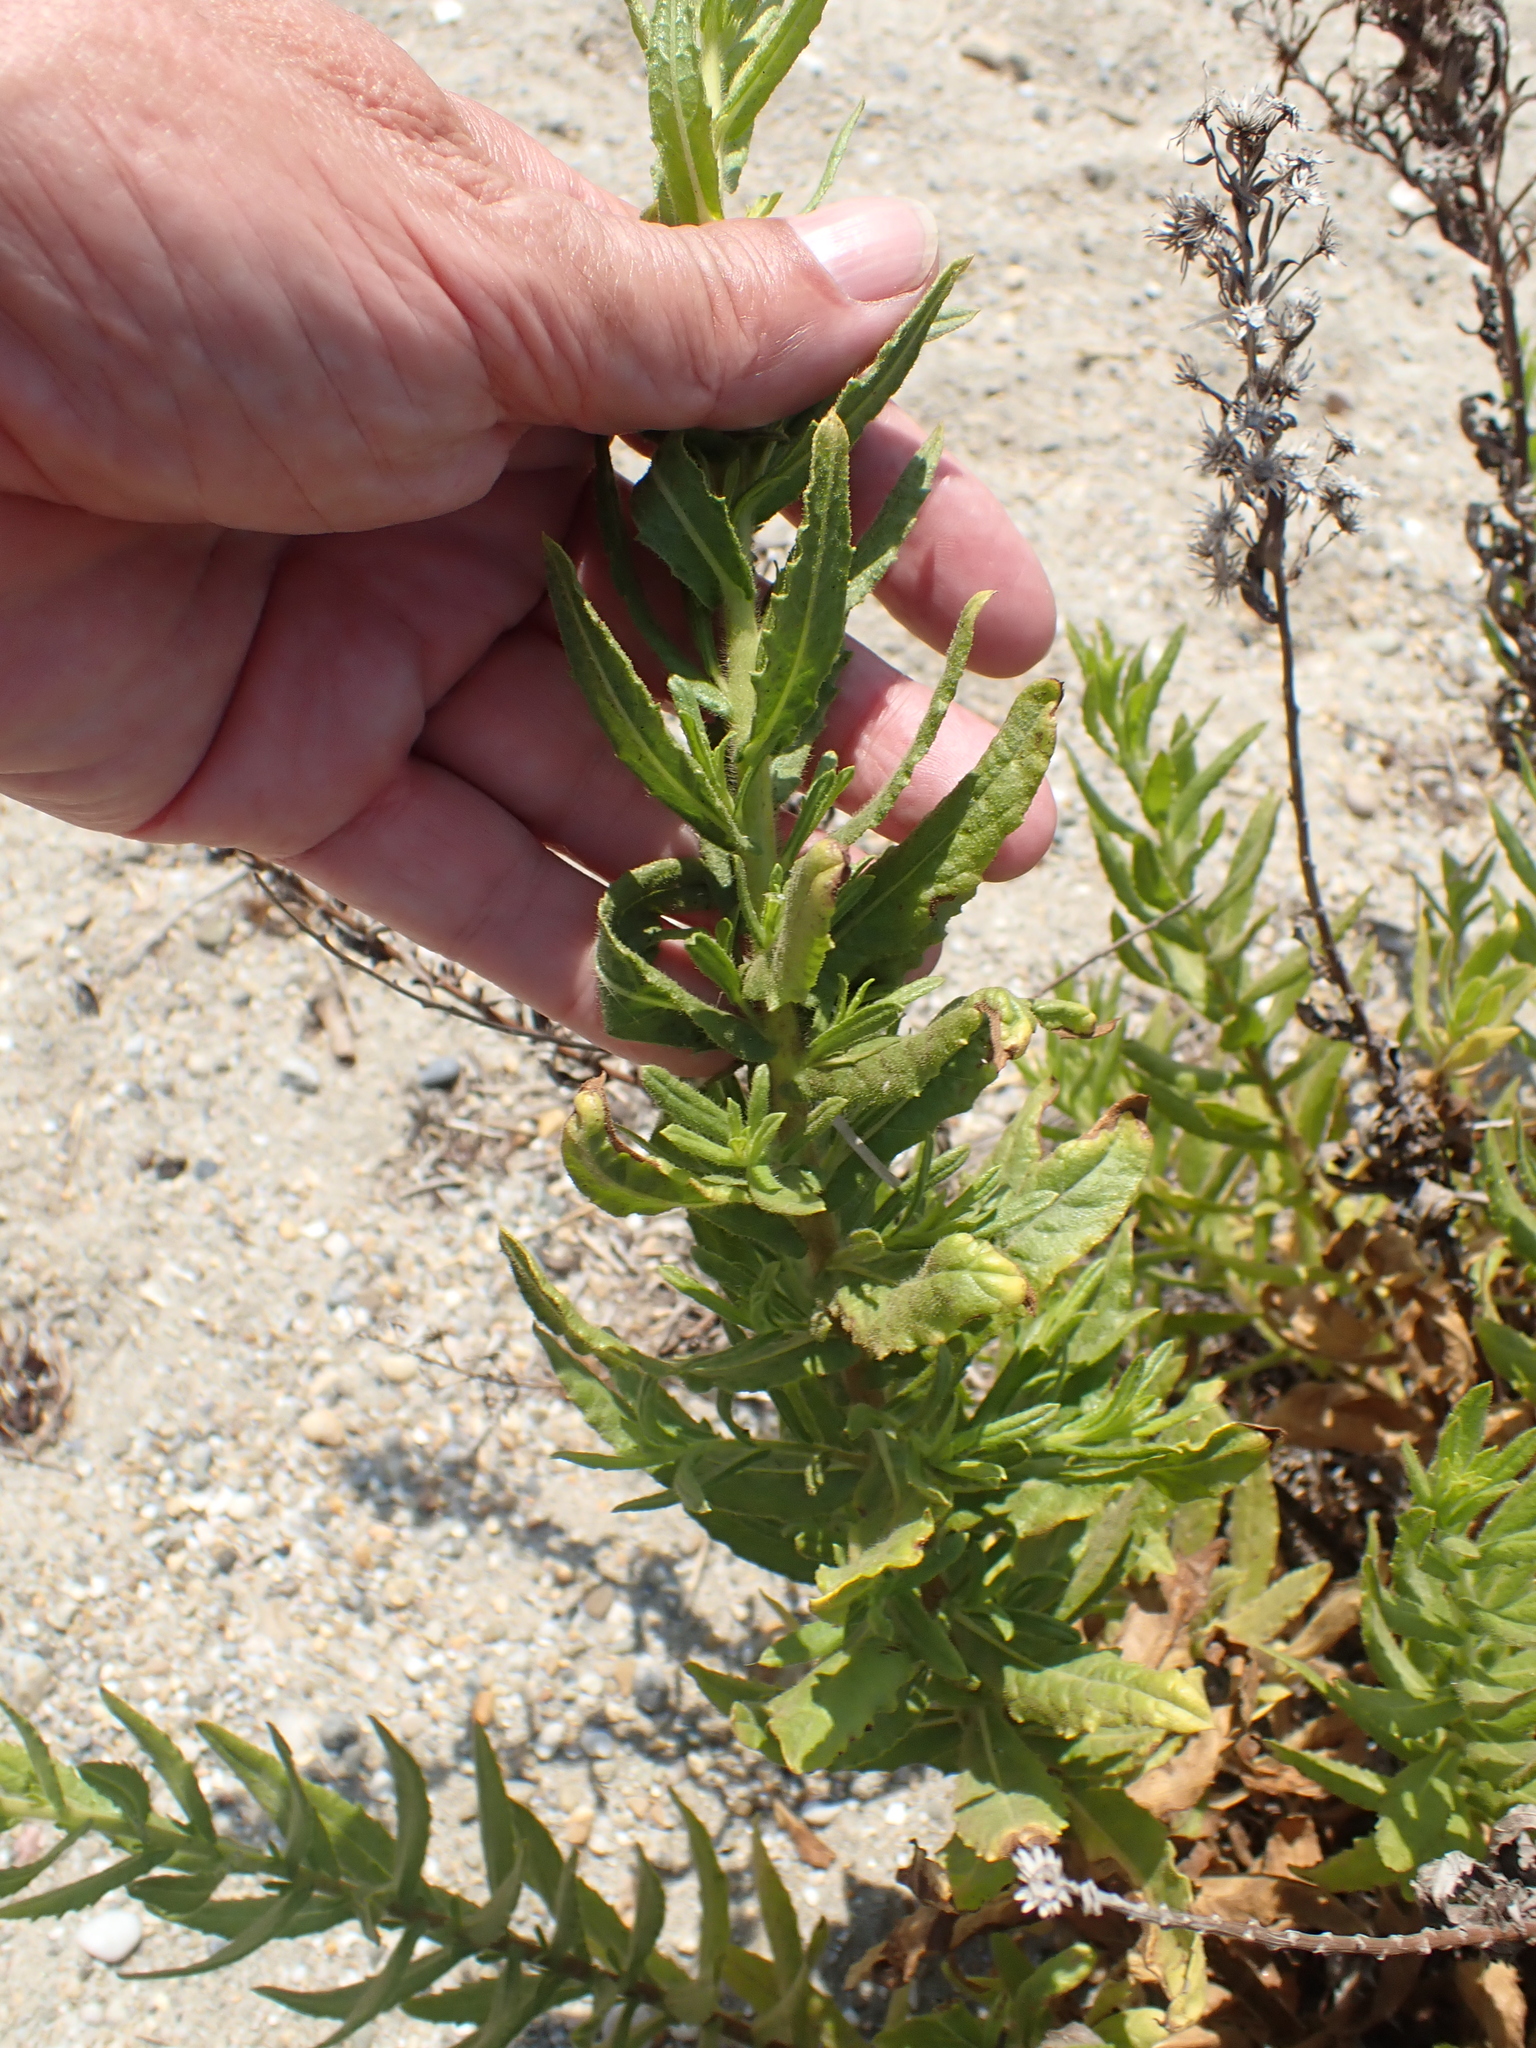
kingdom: Plantae
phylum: Tracheophyta
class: Magnoliopsida
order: Asterales
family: Asteraceae
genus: Dittrichia
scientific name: Dittrichia viscosa
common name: Woody fleabane
